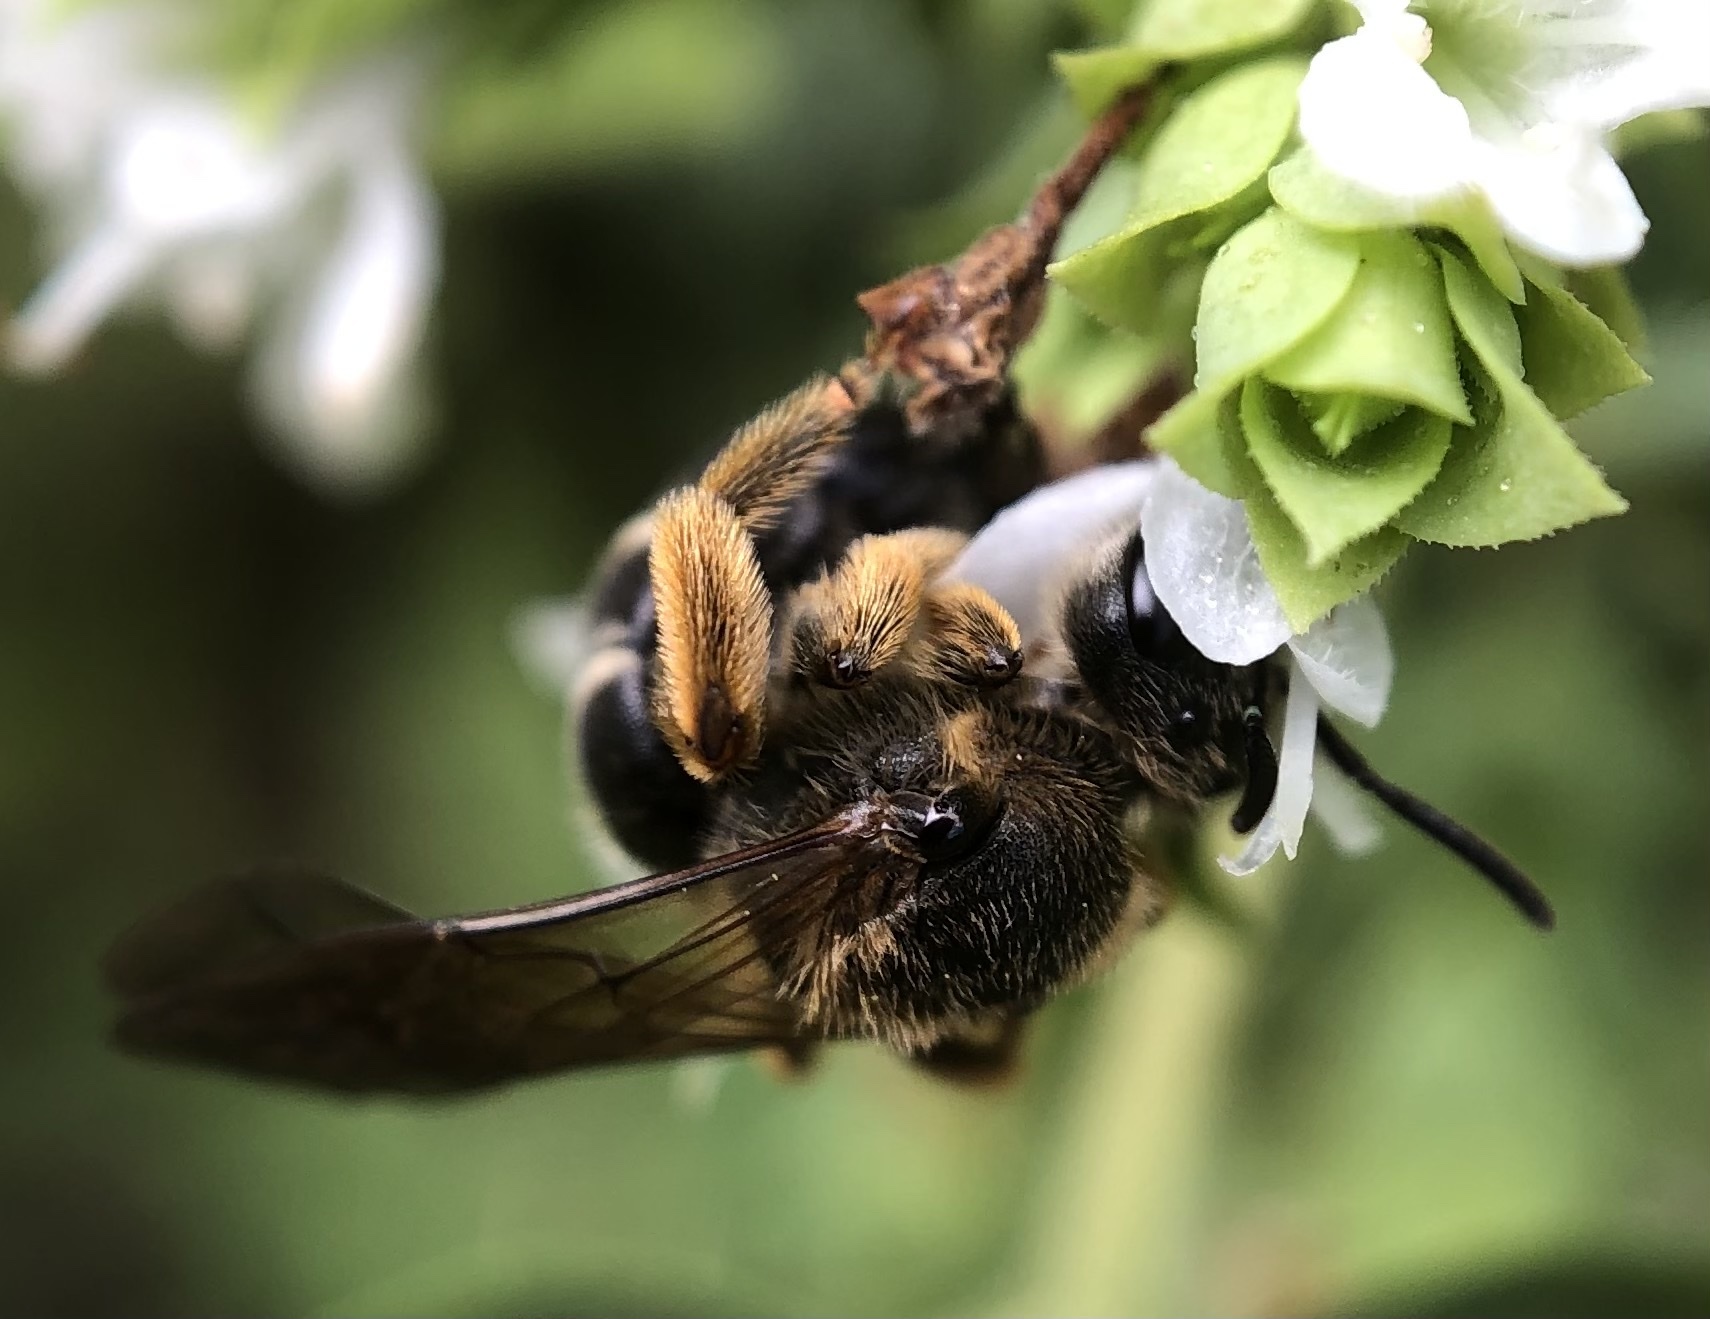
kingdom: Animalia
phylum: Arthropoda
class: Insecta
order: Hymenoptera
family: Halictidae
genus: Halictus
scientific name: Halictus rubicundus
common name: Orange-legged furrow bee
